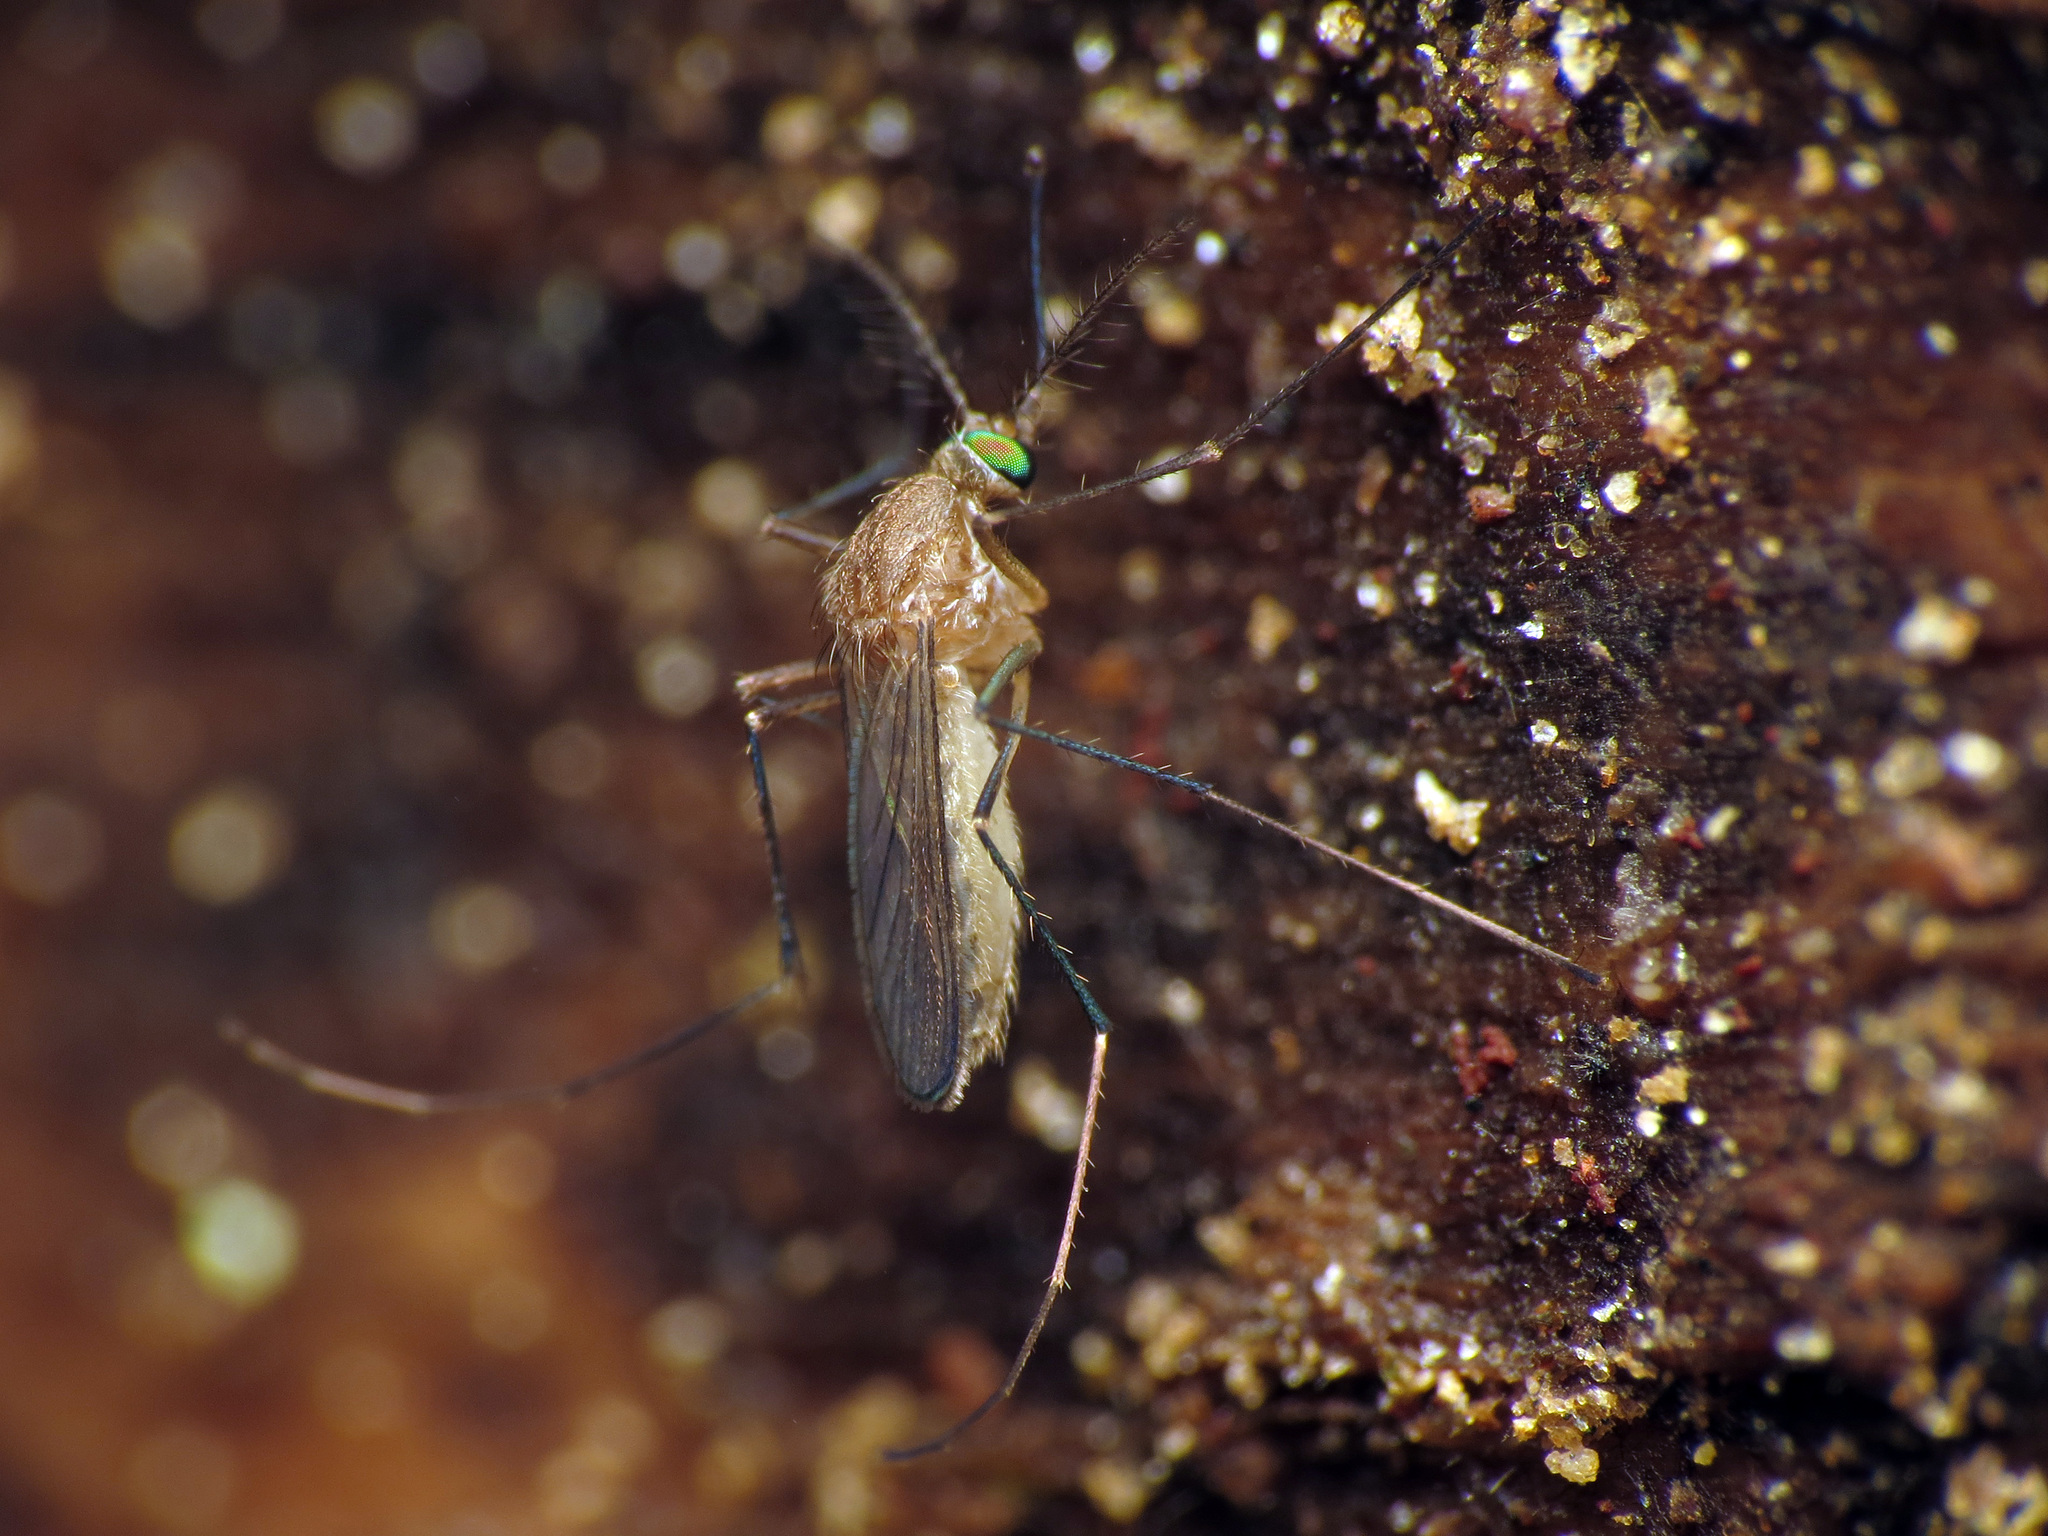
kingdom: Animalia
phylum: Arthropoda
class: Insecta
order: Diptera
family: Culicidae
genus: Culex
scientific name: Culex pipiens
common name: Mosquito
